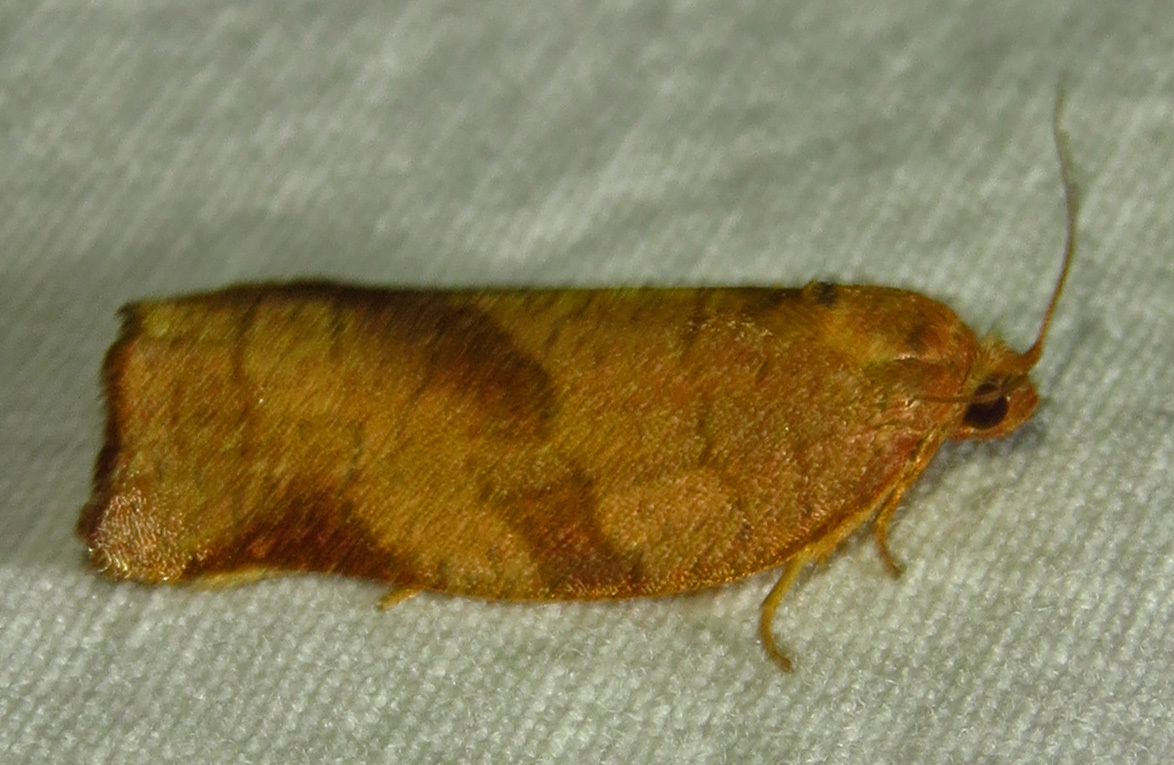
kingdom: Animalia
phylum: Arthropoda
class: Insecta
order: Lepidoptera
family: Tortricidae
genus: Choristoneura
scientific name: Choristoneura rosaceana
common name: Oblique-banded leafroller moth
